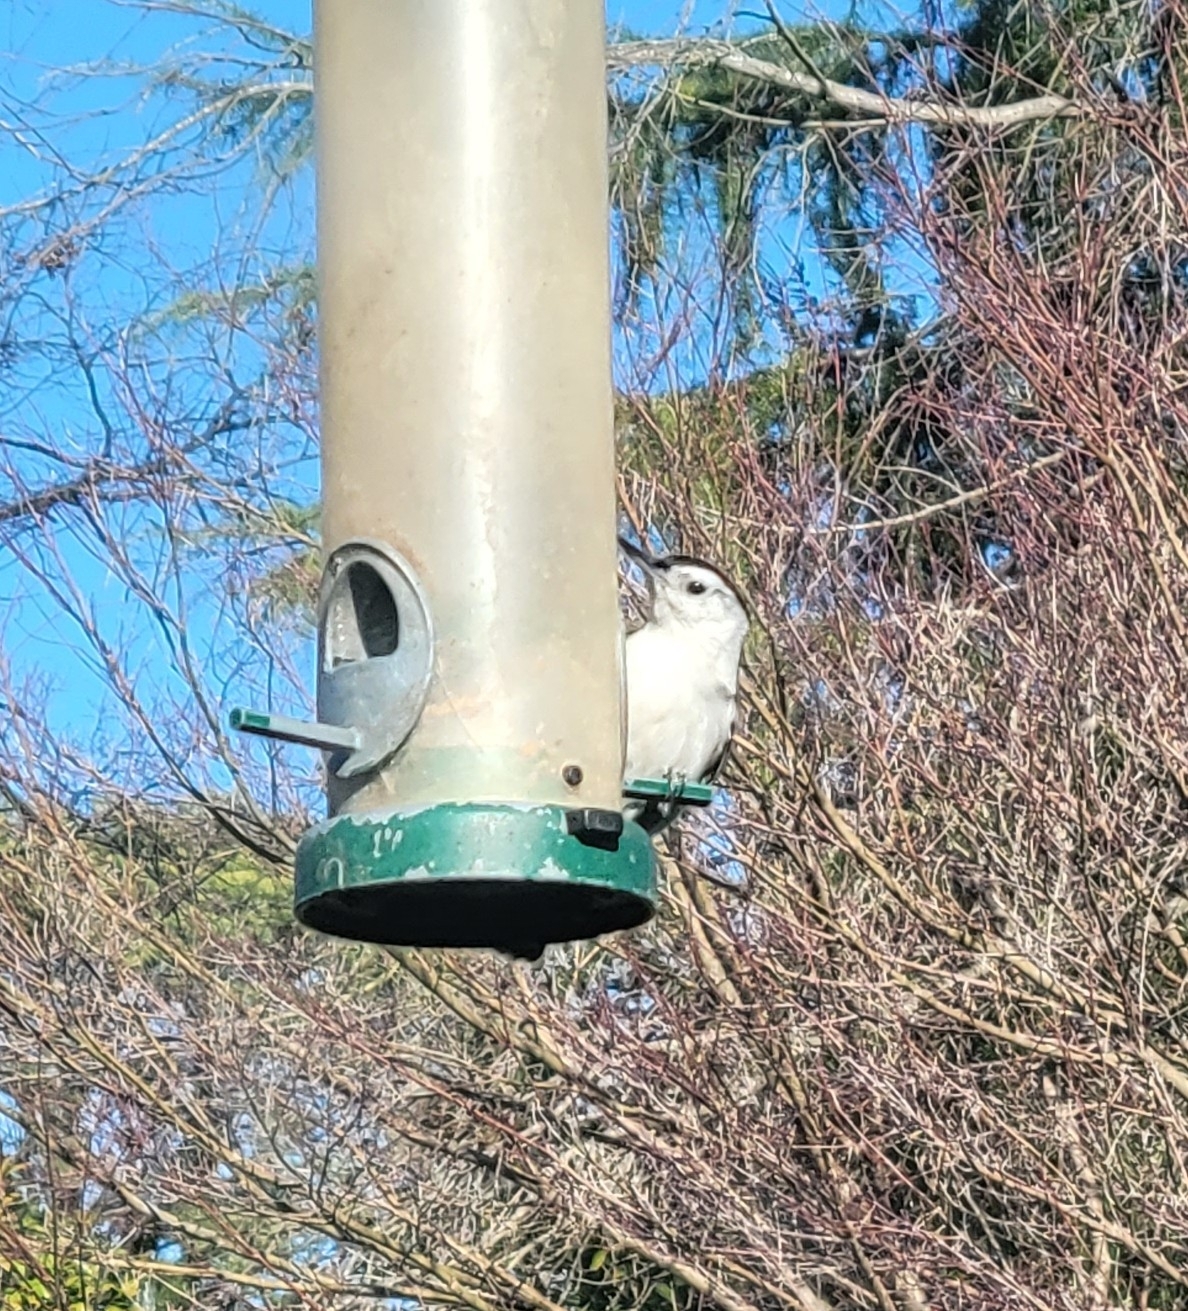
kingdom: Animalia
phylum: Chordata
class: Aves
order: Passeriformes
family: Sittidae
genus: Sitta
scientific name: Sitta carolinensis
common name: White-breasted nuthatch
